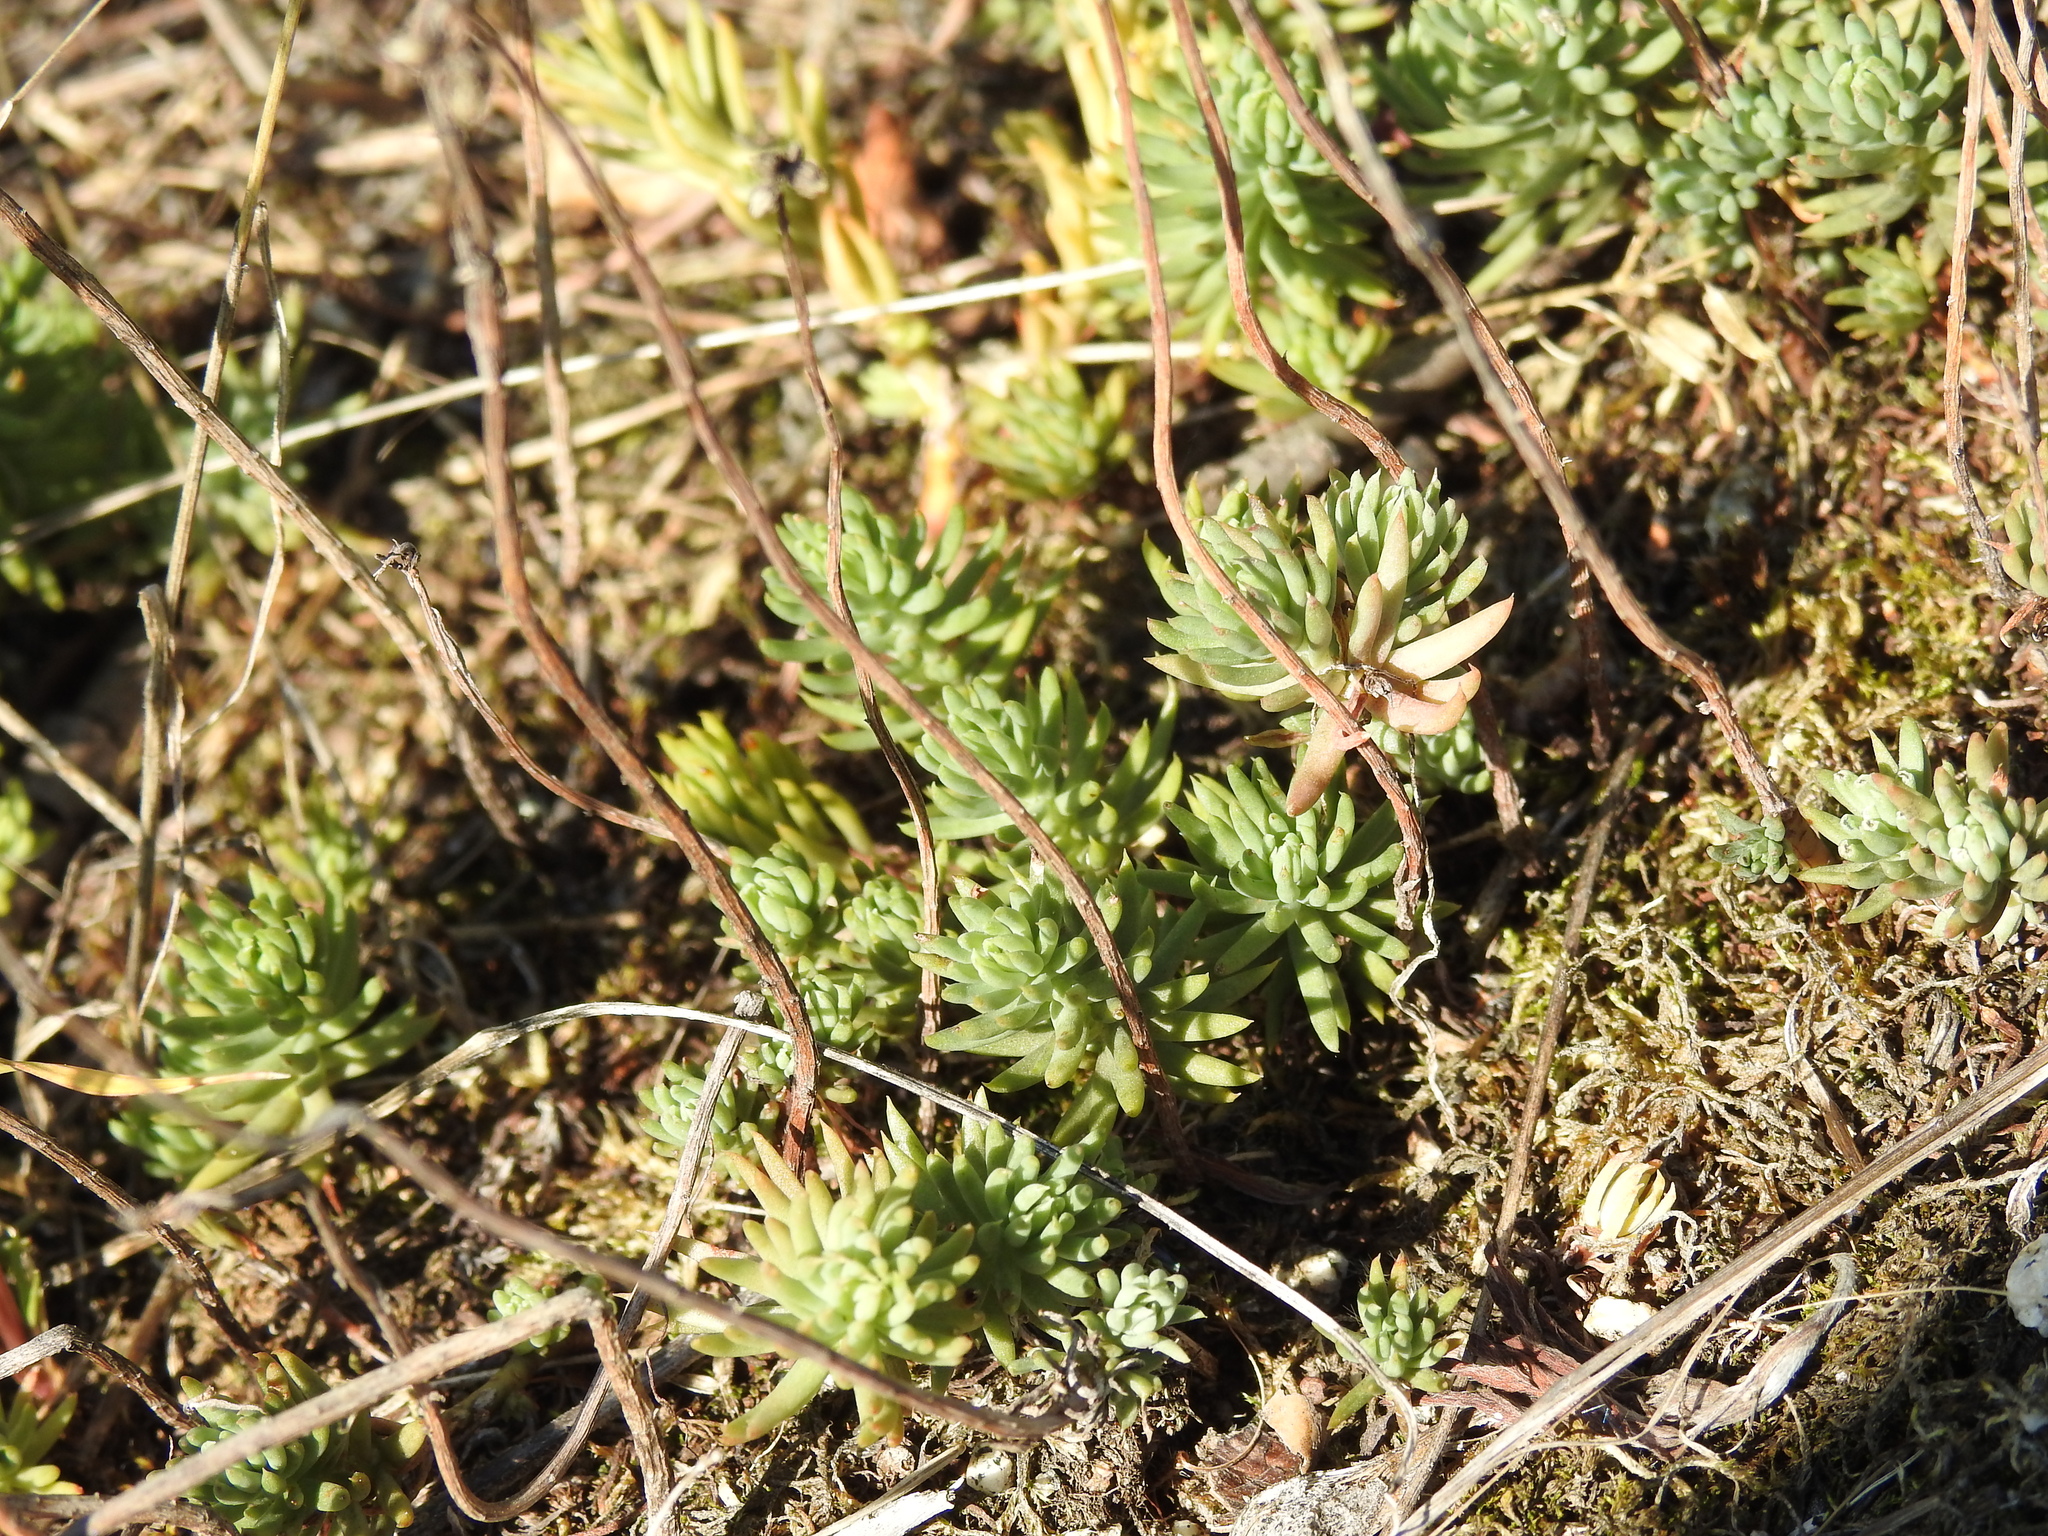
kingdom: Plantae
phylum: Tracheophyta
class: Magnoliopsida
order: Saxifragales
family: Crassulaceae
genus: Petrosedum
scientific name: Petrosedum rupestre
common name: Jenny's stonecrop
